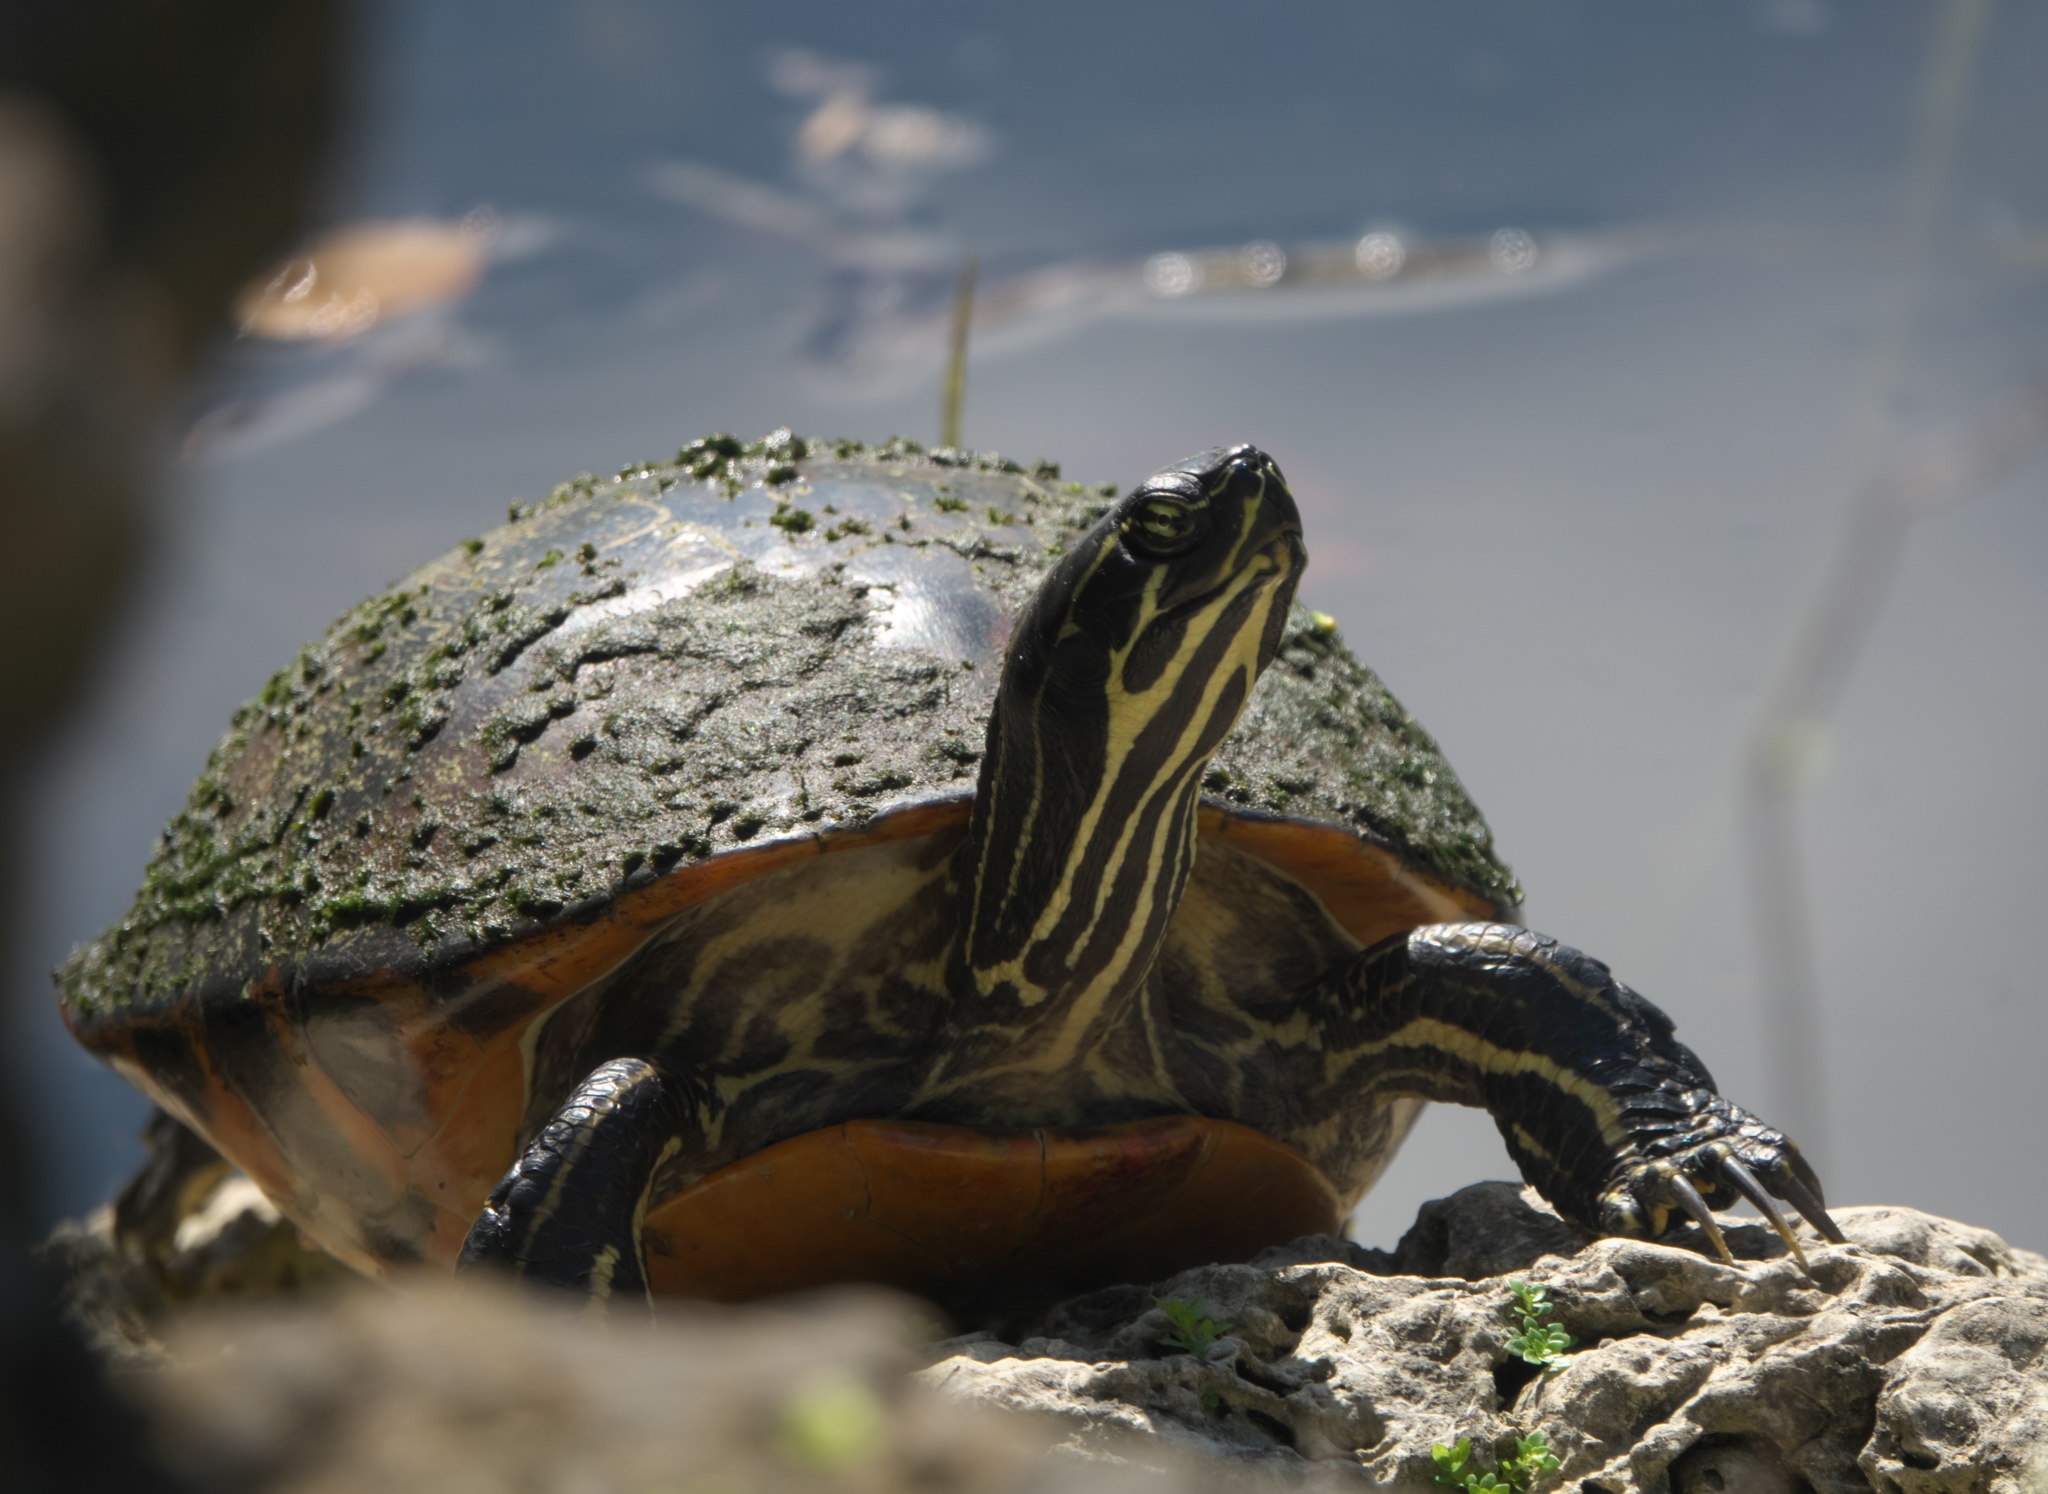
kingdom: Animalia
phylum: Chordata
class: Testudines
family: Emydidae
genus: Pseudemys
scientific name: Pseudemys nelsoni
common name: Florida red-bellied turtle
